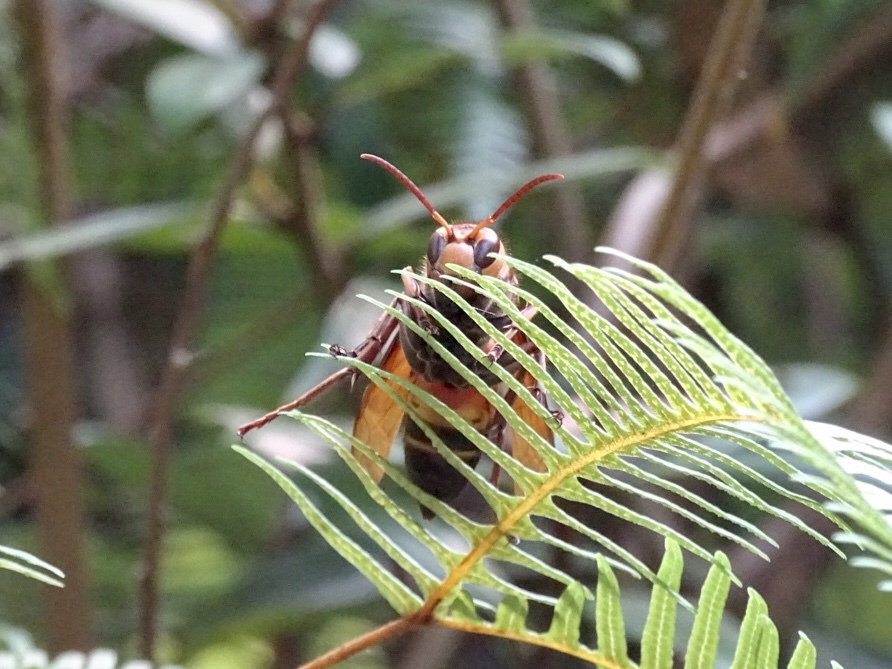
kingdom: Animalia
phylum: Arthropoda
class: Insecta
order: Hymenoptera
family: Vespidae
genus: Vespa
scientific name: Vespa ducalis
